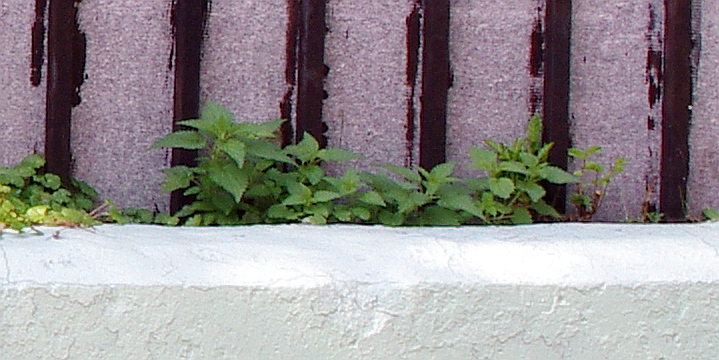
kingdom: Plantae
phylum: Tracheophyta
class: Magnoliopsida
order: Rosales
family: Urticaceae
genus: Urtica
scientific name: Urtica dioica
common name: Common nettle
